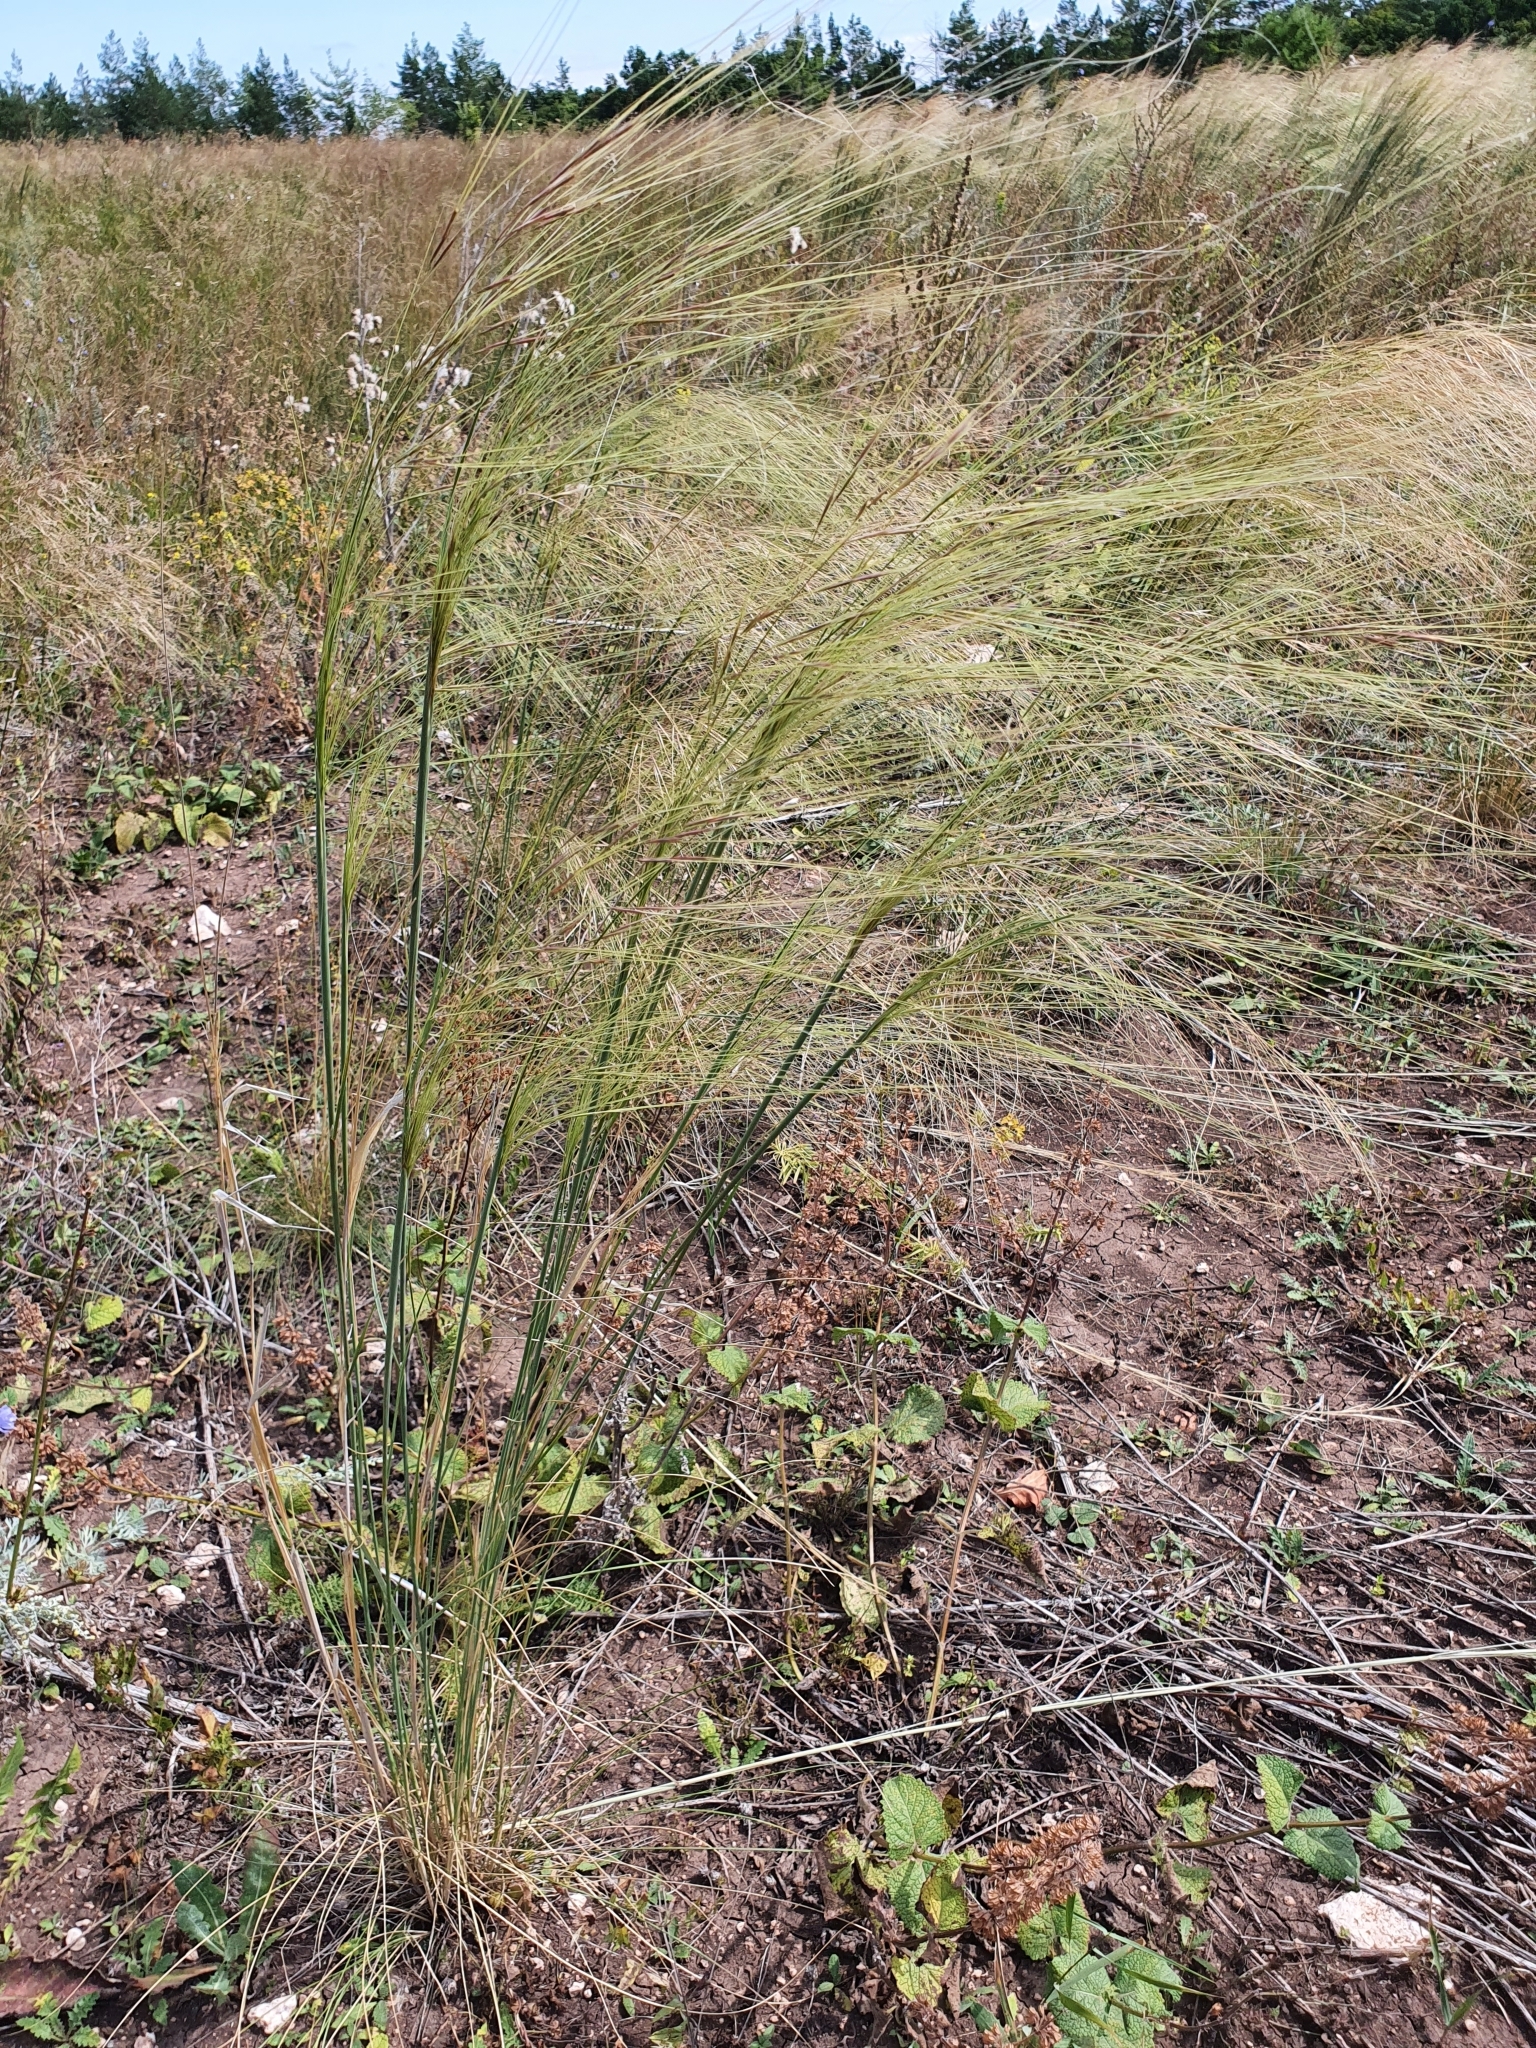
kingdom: Plantae
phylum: Tracheophyta
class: Liliopsida
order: Poales
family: Poaceae
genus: Stipa
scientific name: Stipa capillata
